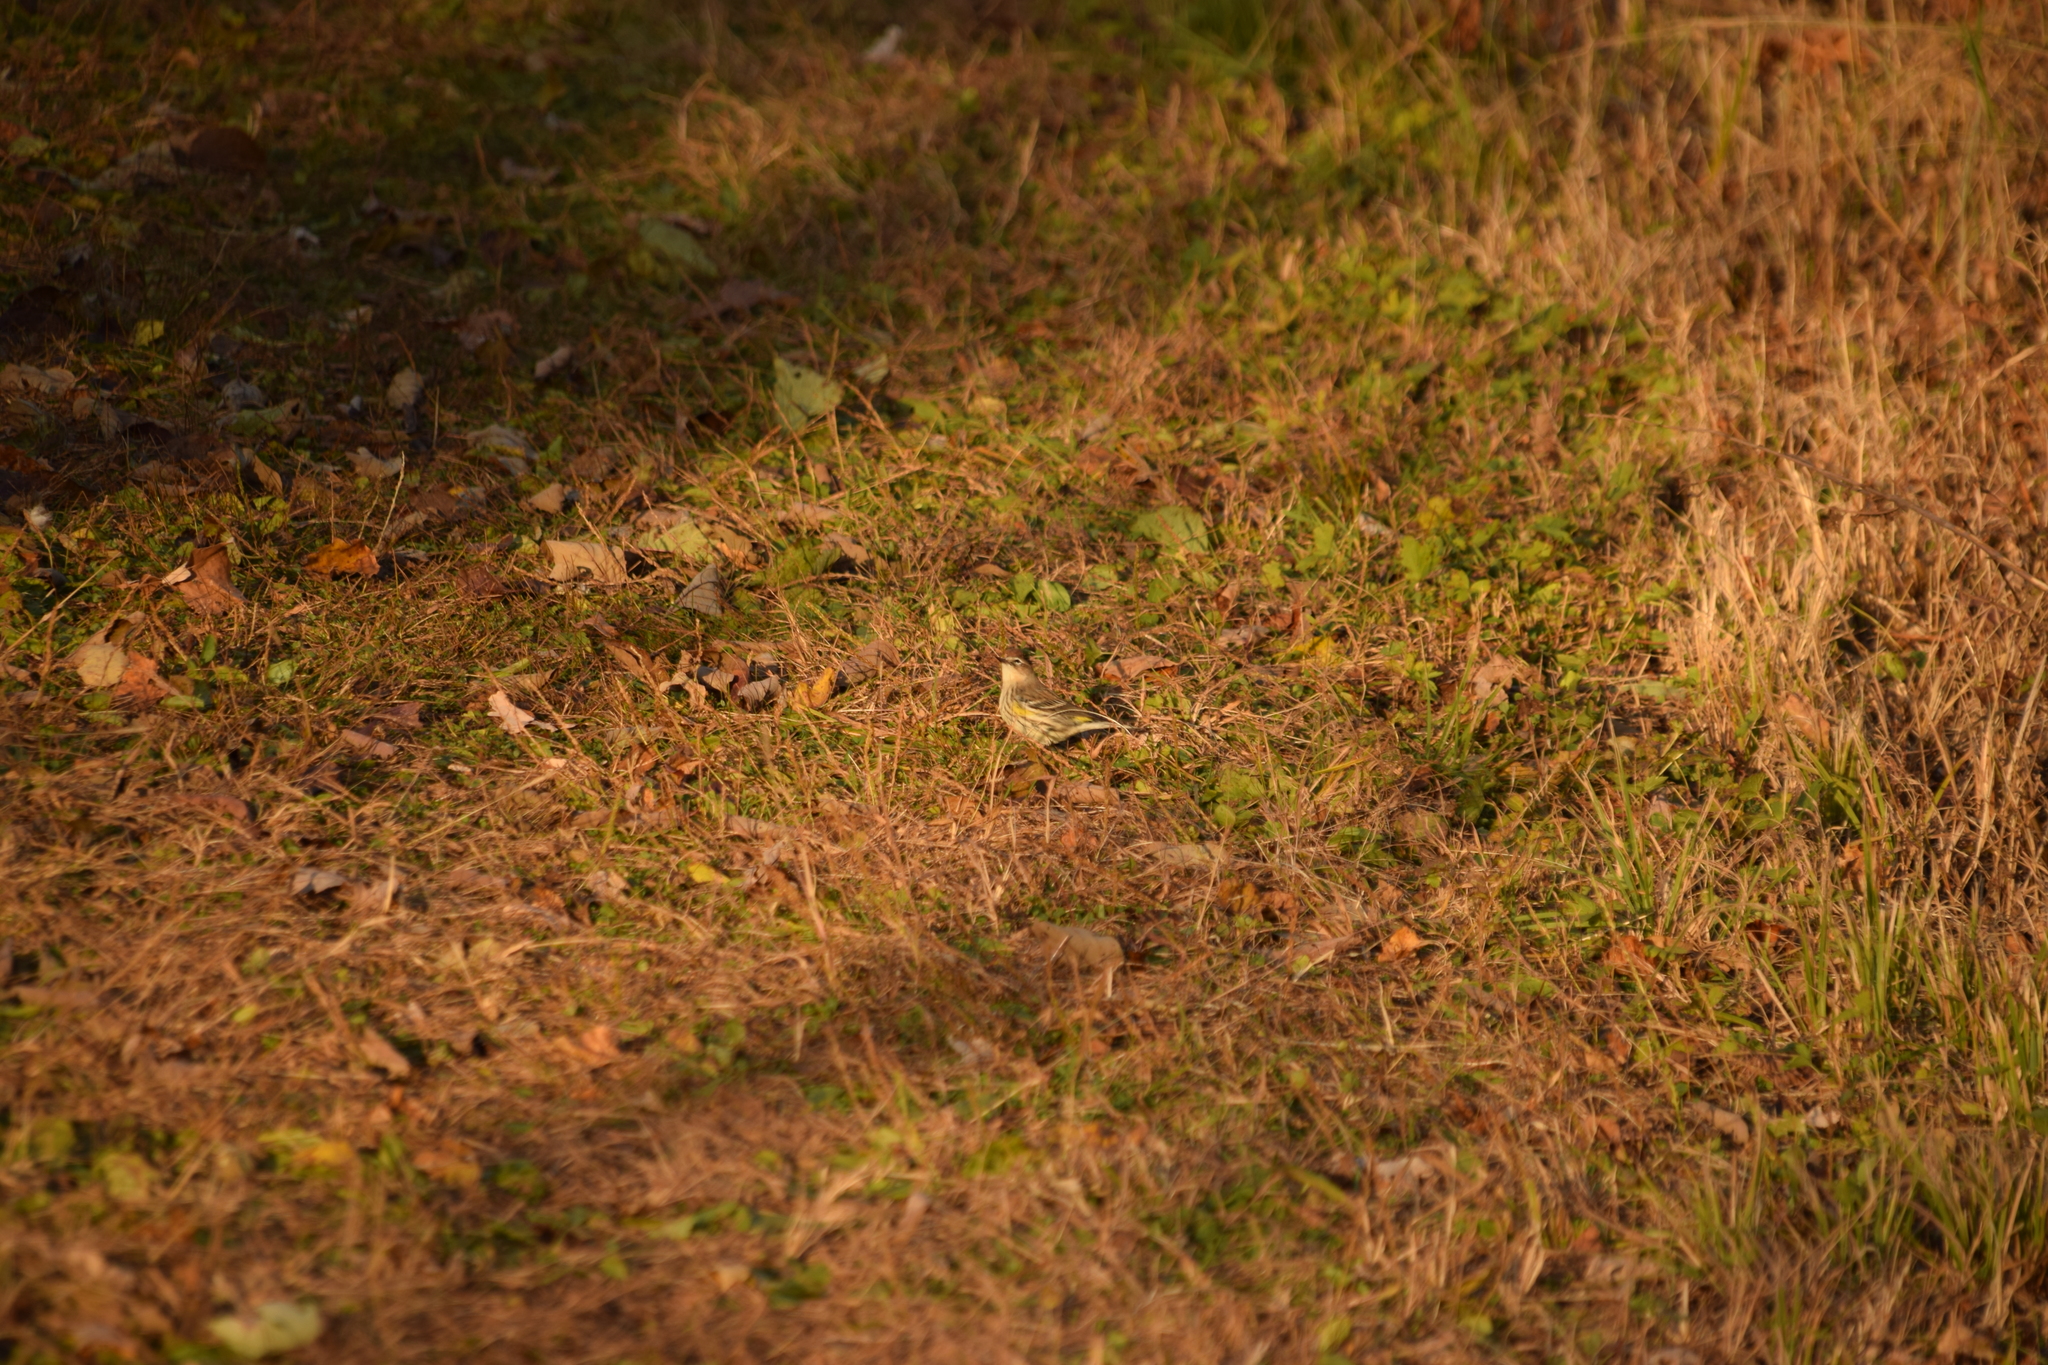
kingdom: Animalia
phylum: Chordata
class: Aves
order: Passeriformes
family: Parulidae
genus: Setophaga
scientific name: Setophaga coronata
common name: Myrtle warbler
